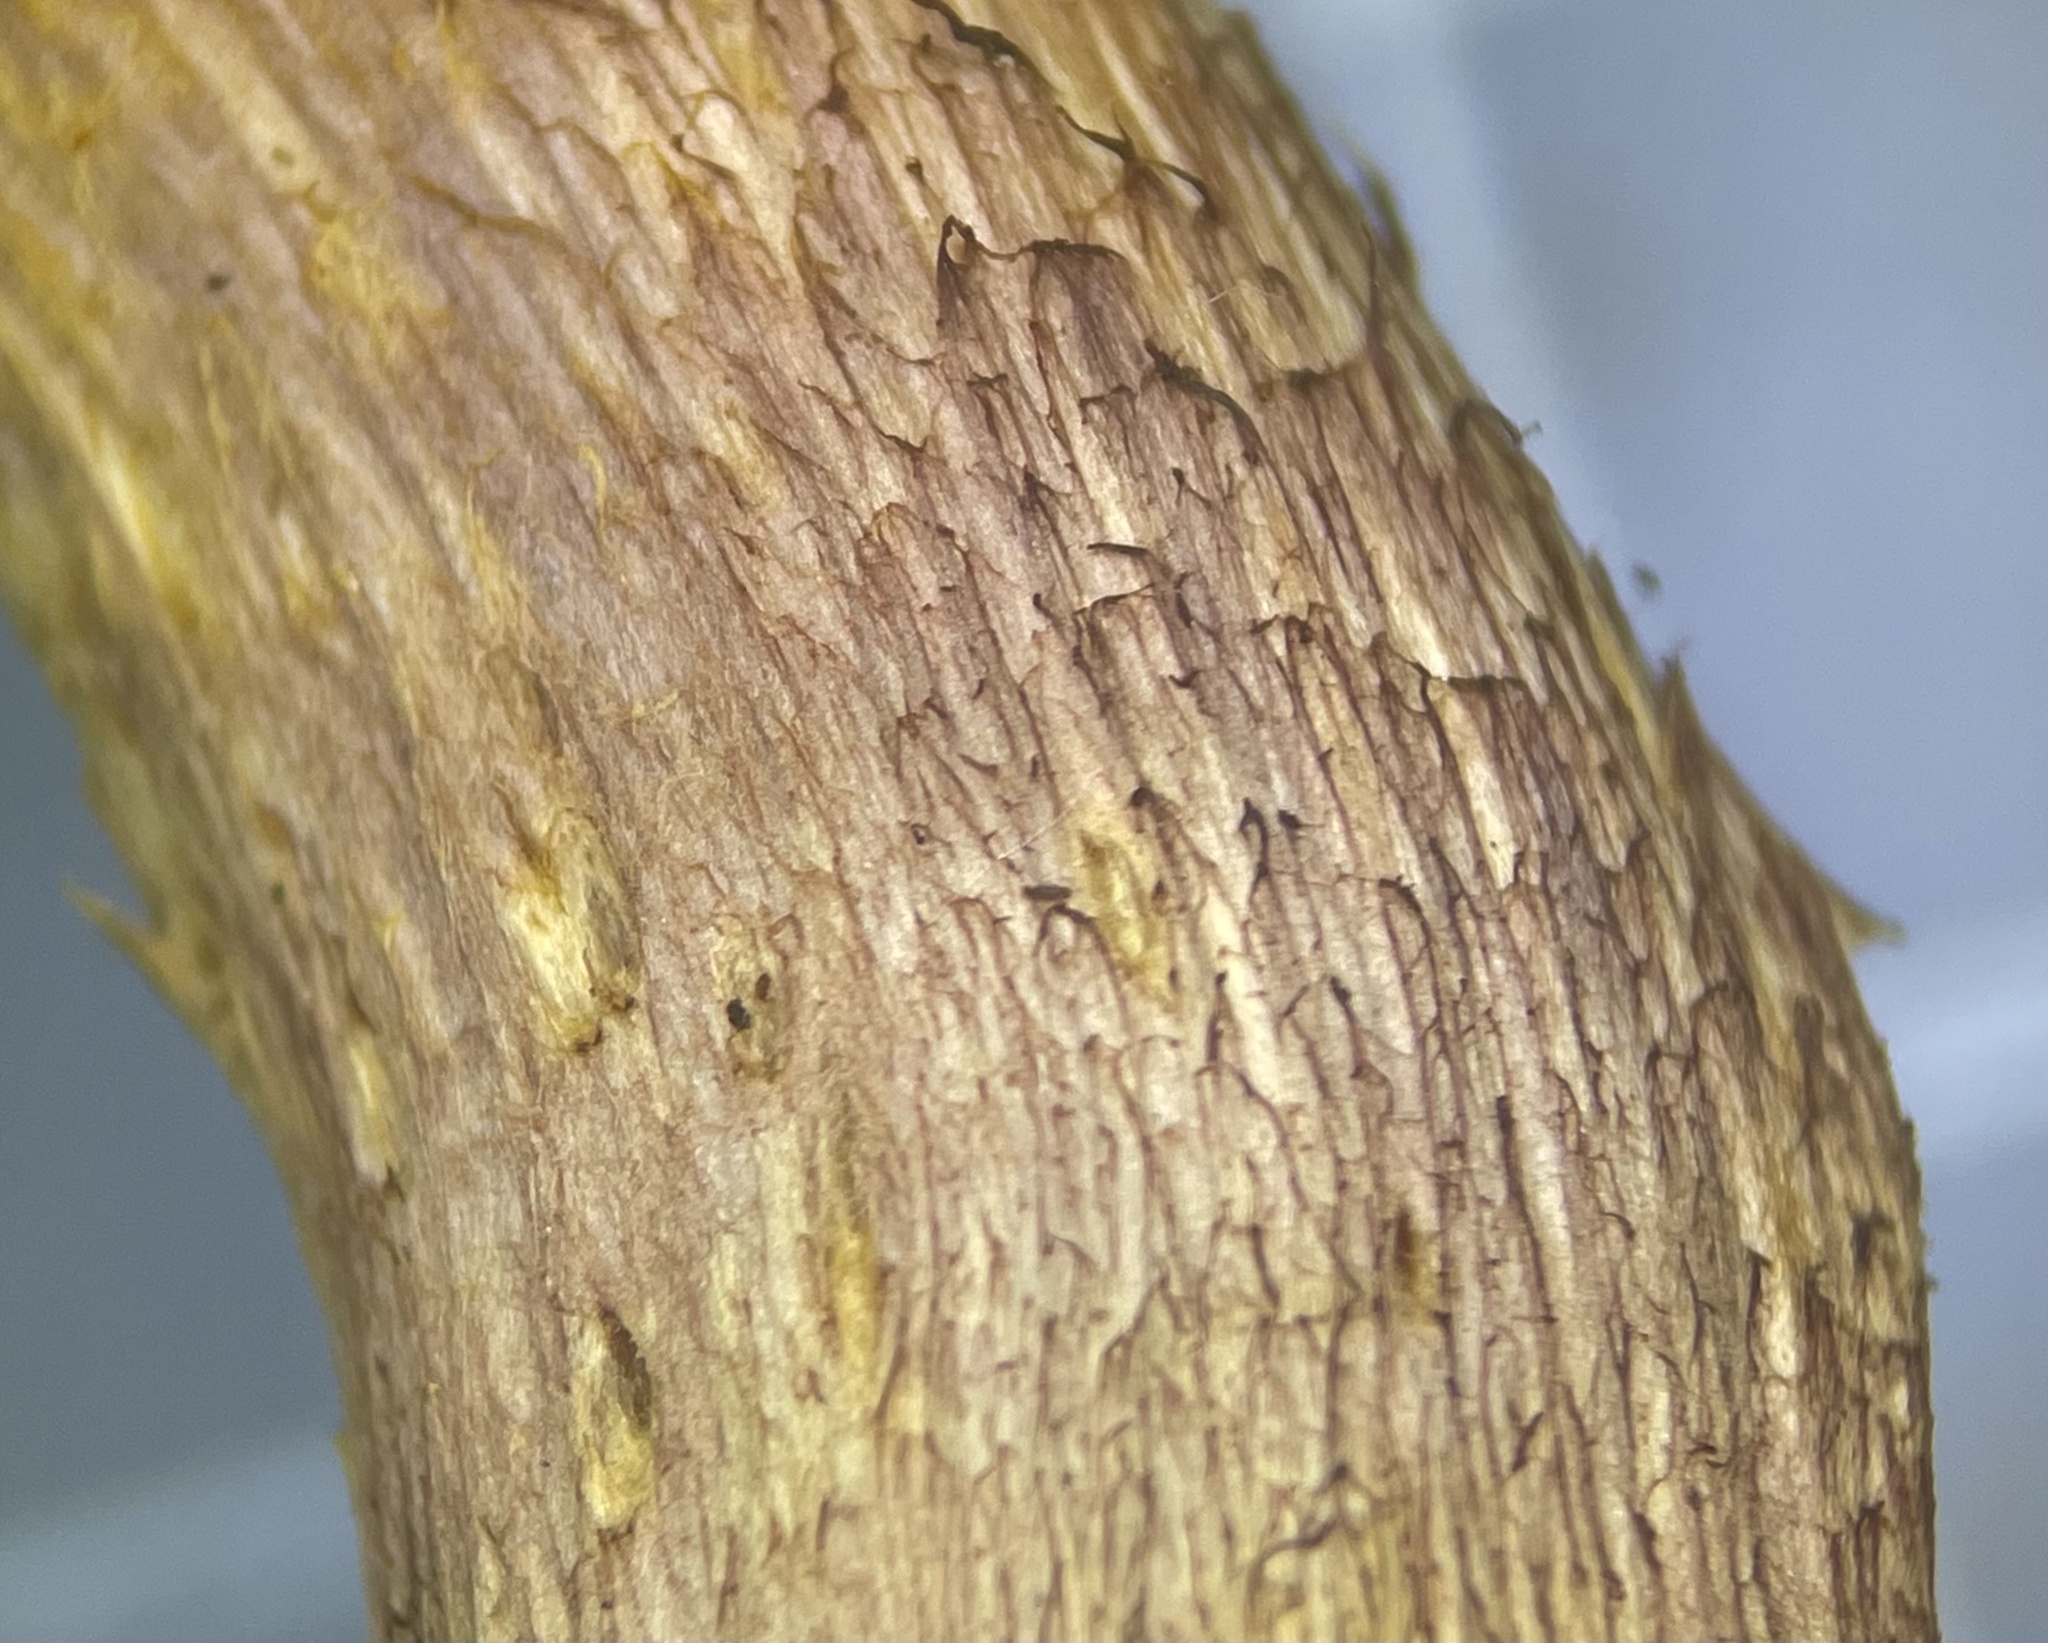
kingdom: Fungi
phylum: Basidiomycota
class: Agaricomycetes
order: Agaricales
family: Hymenogastraceae
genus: Gymnopilus
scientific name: Gymnopilus luteofolius
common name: Yellow-gilled gymnopilus
